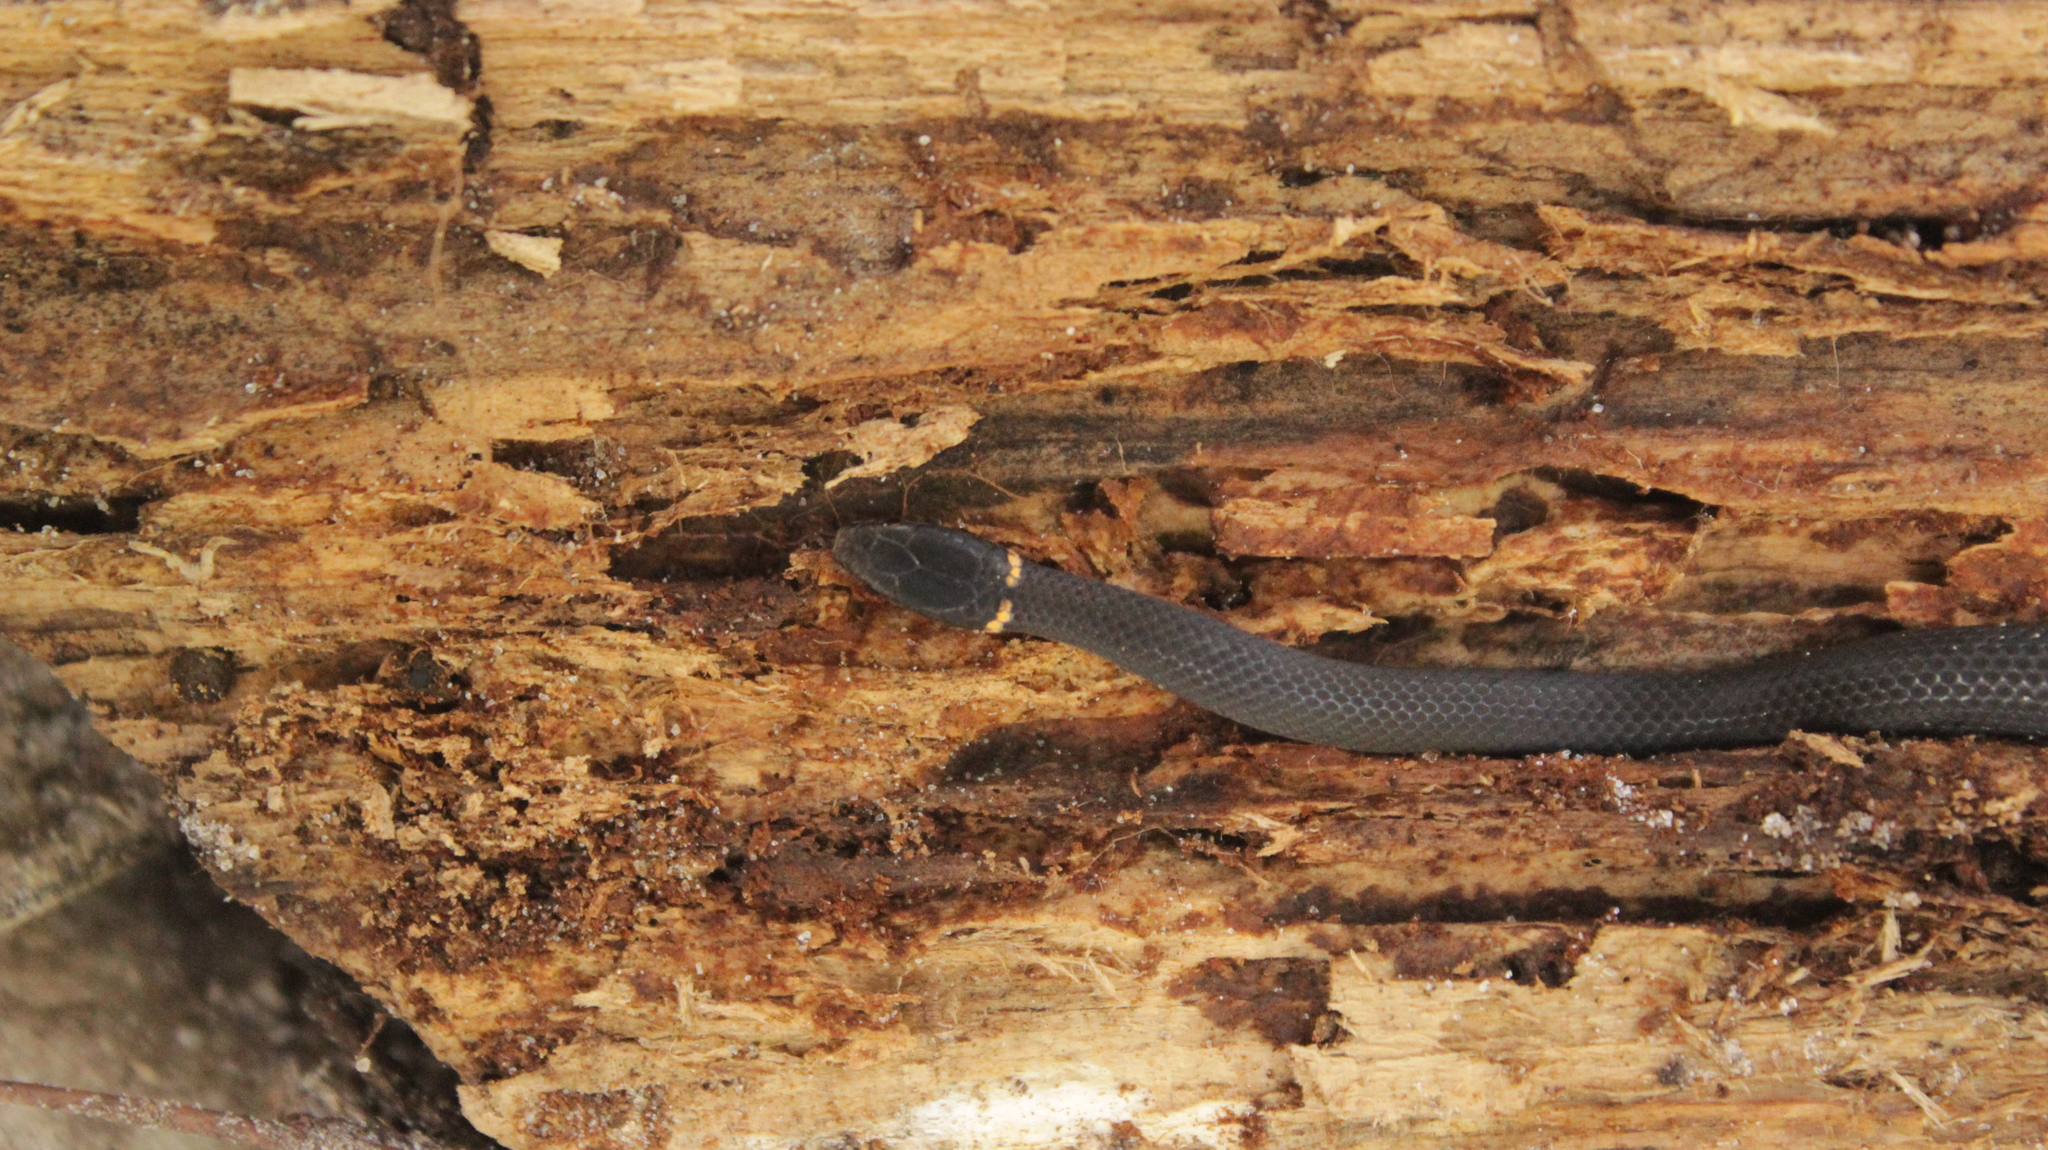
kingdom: Animalia
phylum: Chordata
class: Squamata
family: Colubridae
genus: Diadophis
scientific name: Diadophis punctatus
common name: Ringneck snake
